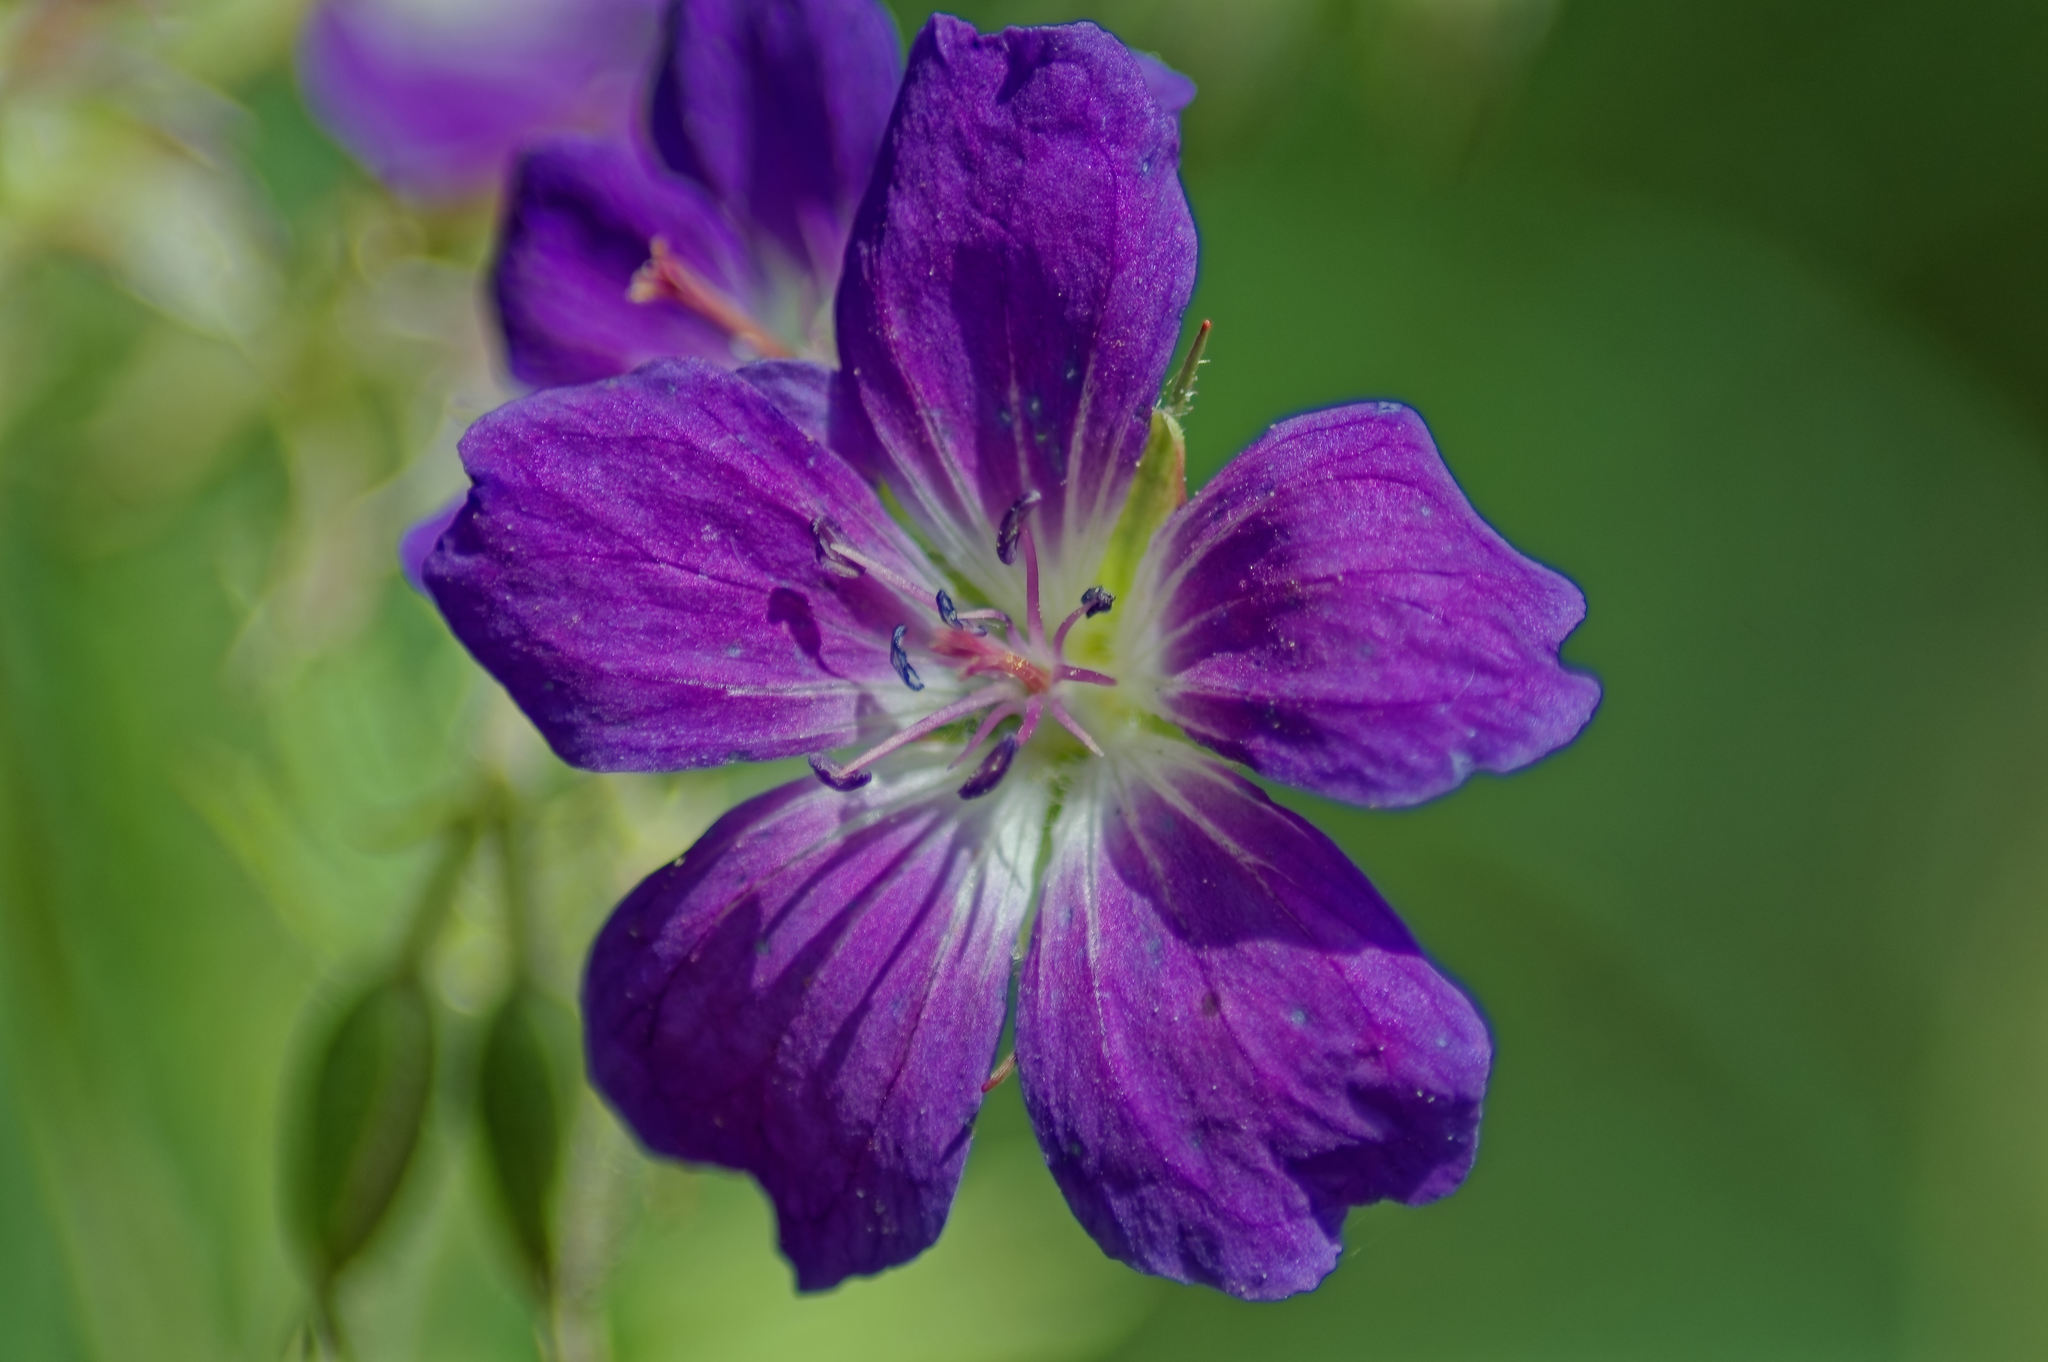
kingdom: Plantae
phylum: Tracheophyta
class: Magnoliopsida
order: Geraniales
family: Geraniaceae
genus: Geranium
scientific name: Geranium sylvaticum
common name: Wood crane's-bill
